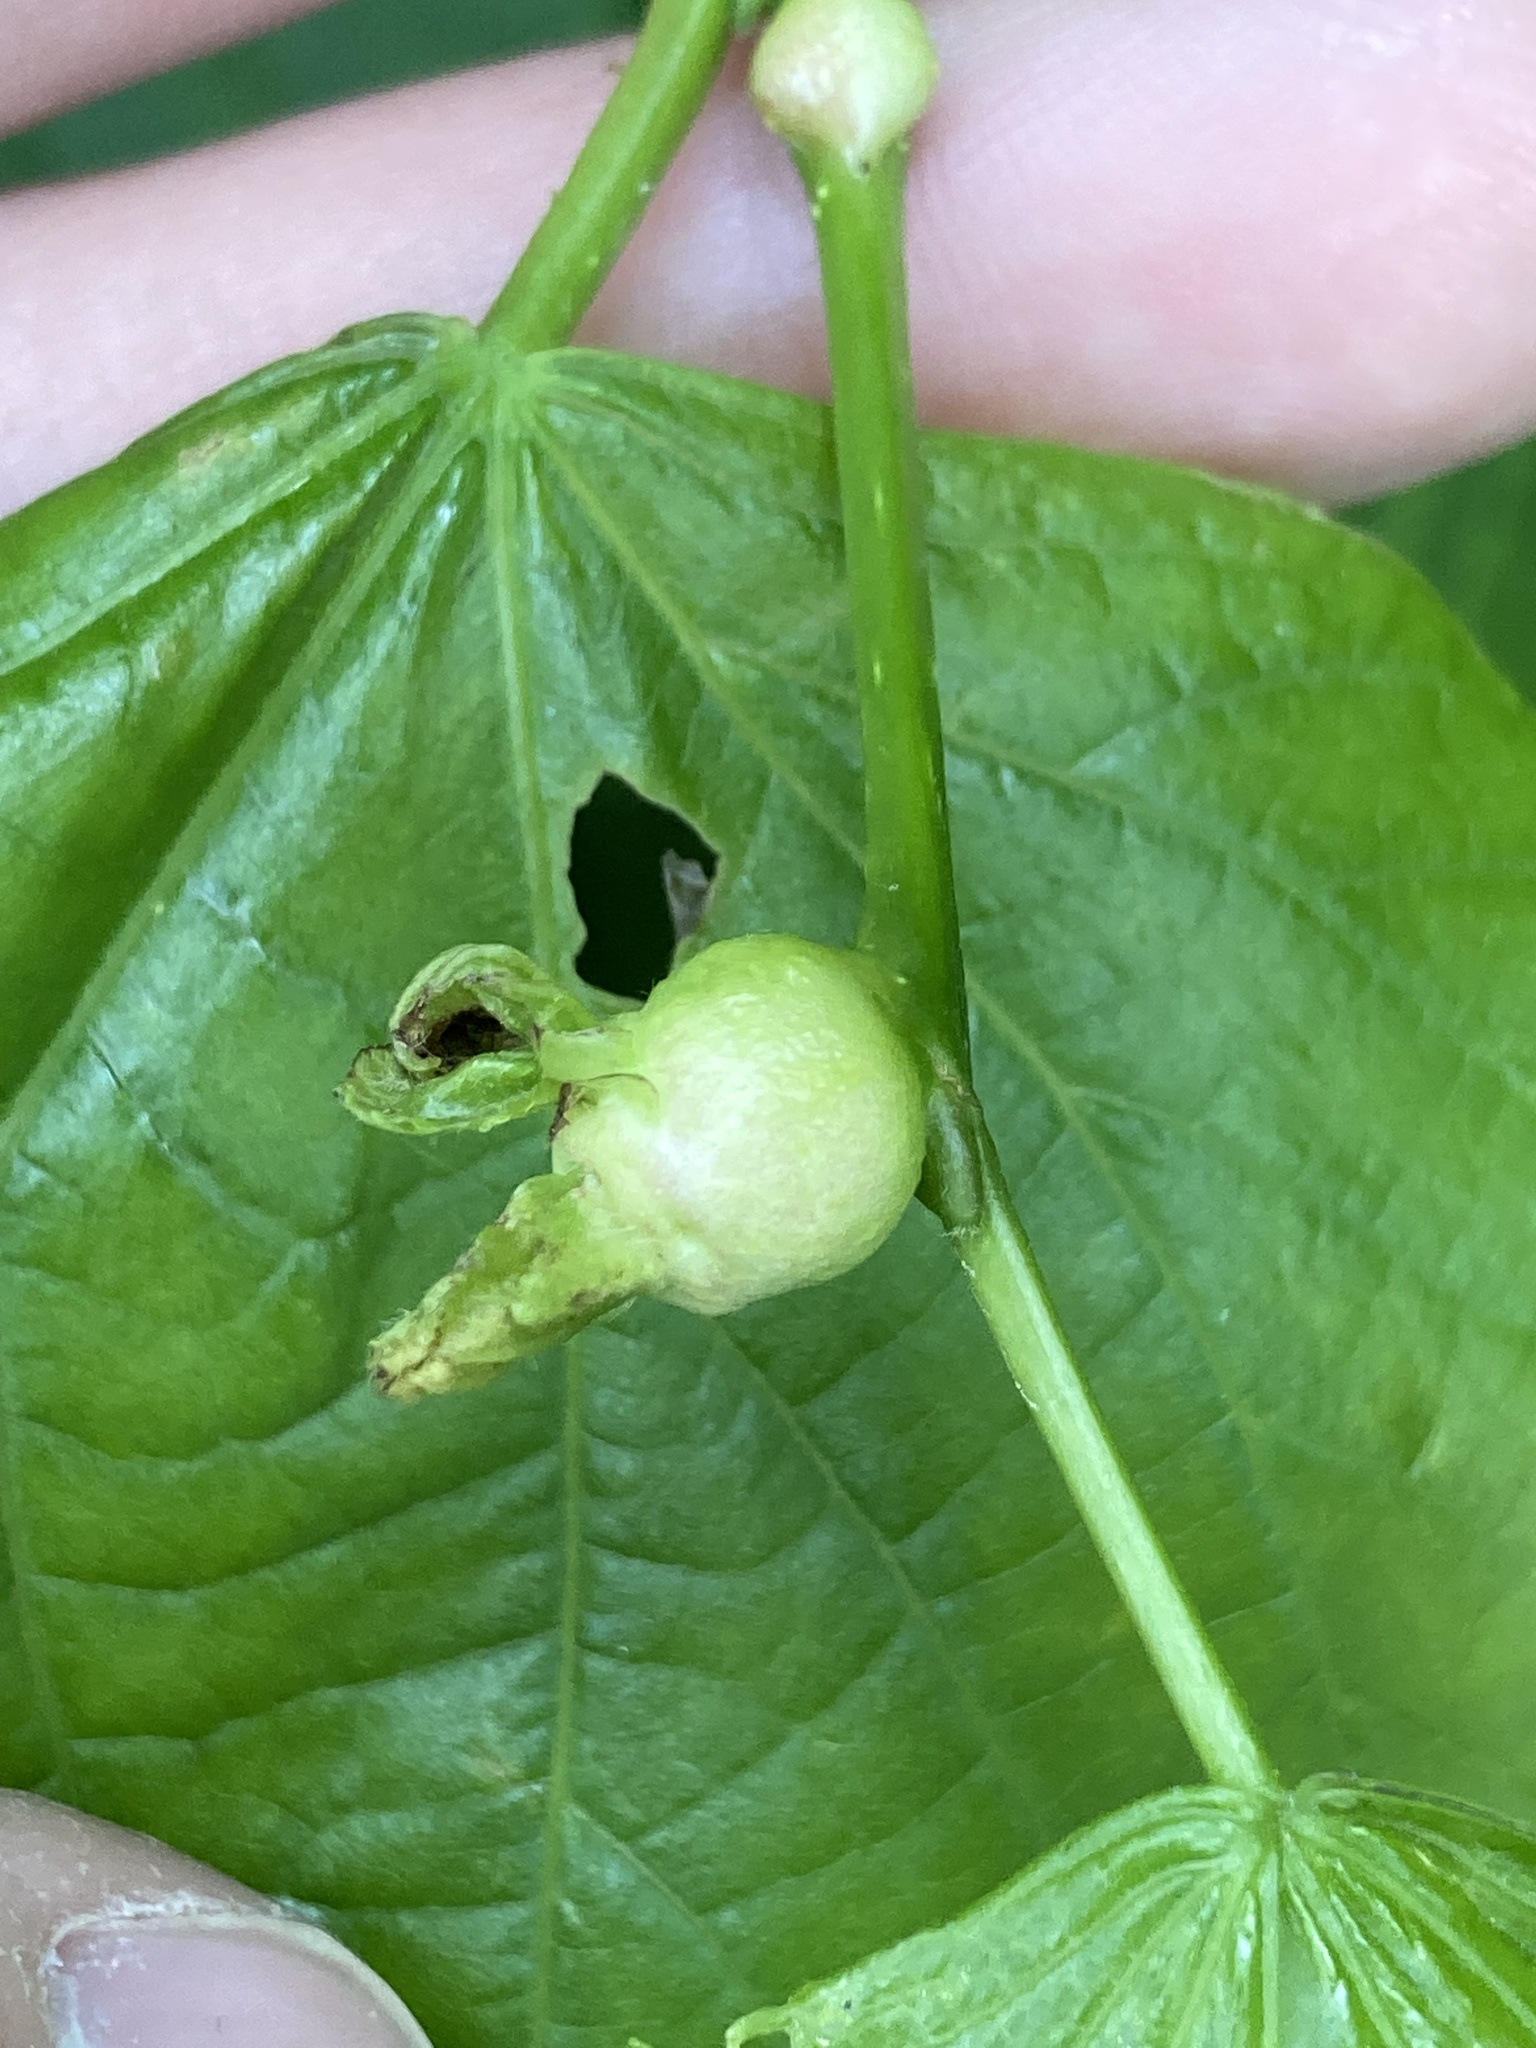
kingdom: Animalia
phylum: Arthropoda
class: Insecta
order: Diptera
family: Cecidomyiidae
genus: Contarinia
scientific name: Contarinia tiliarum
